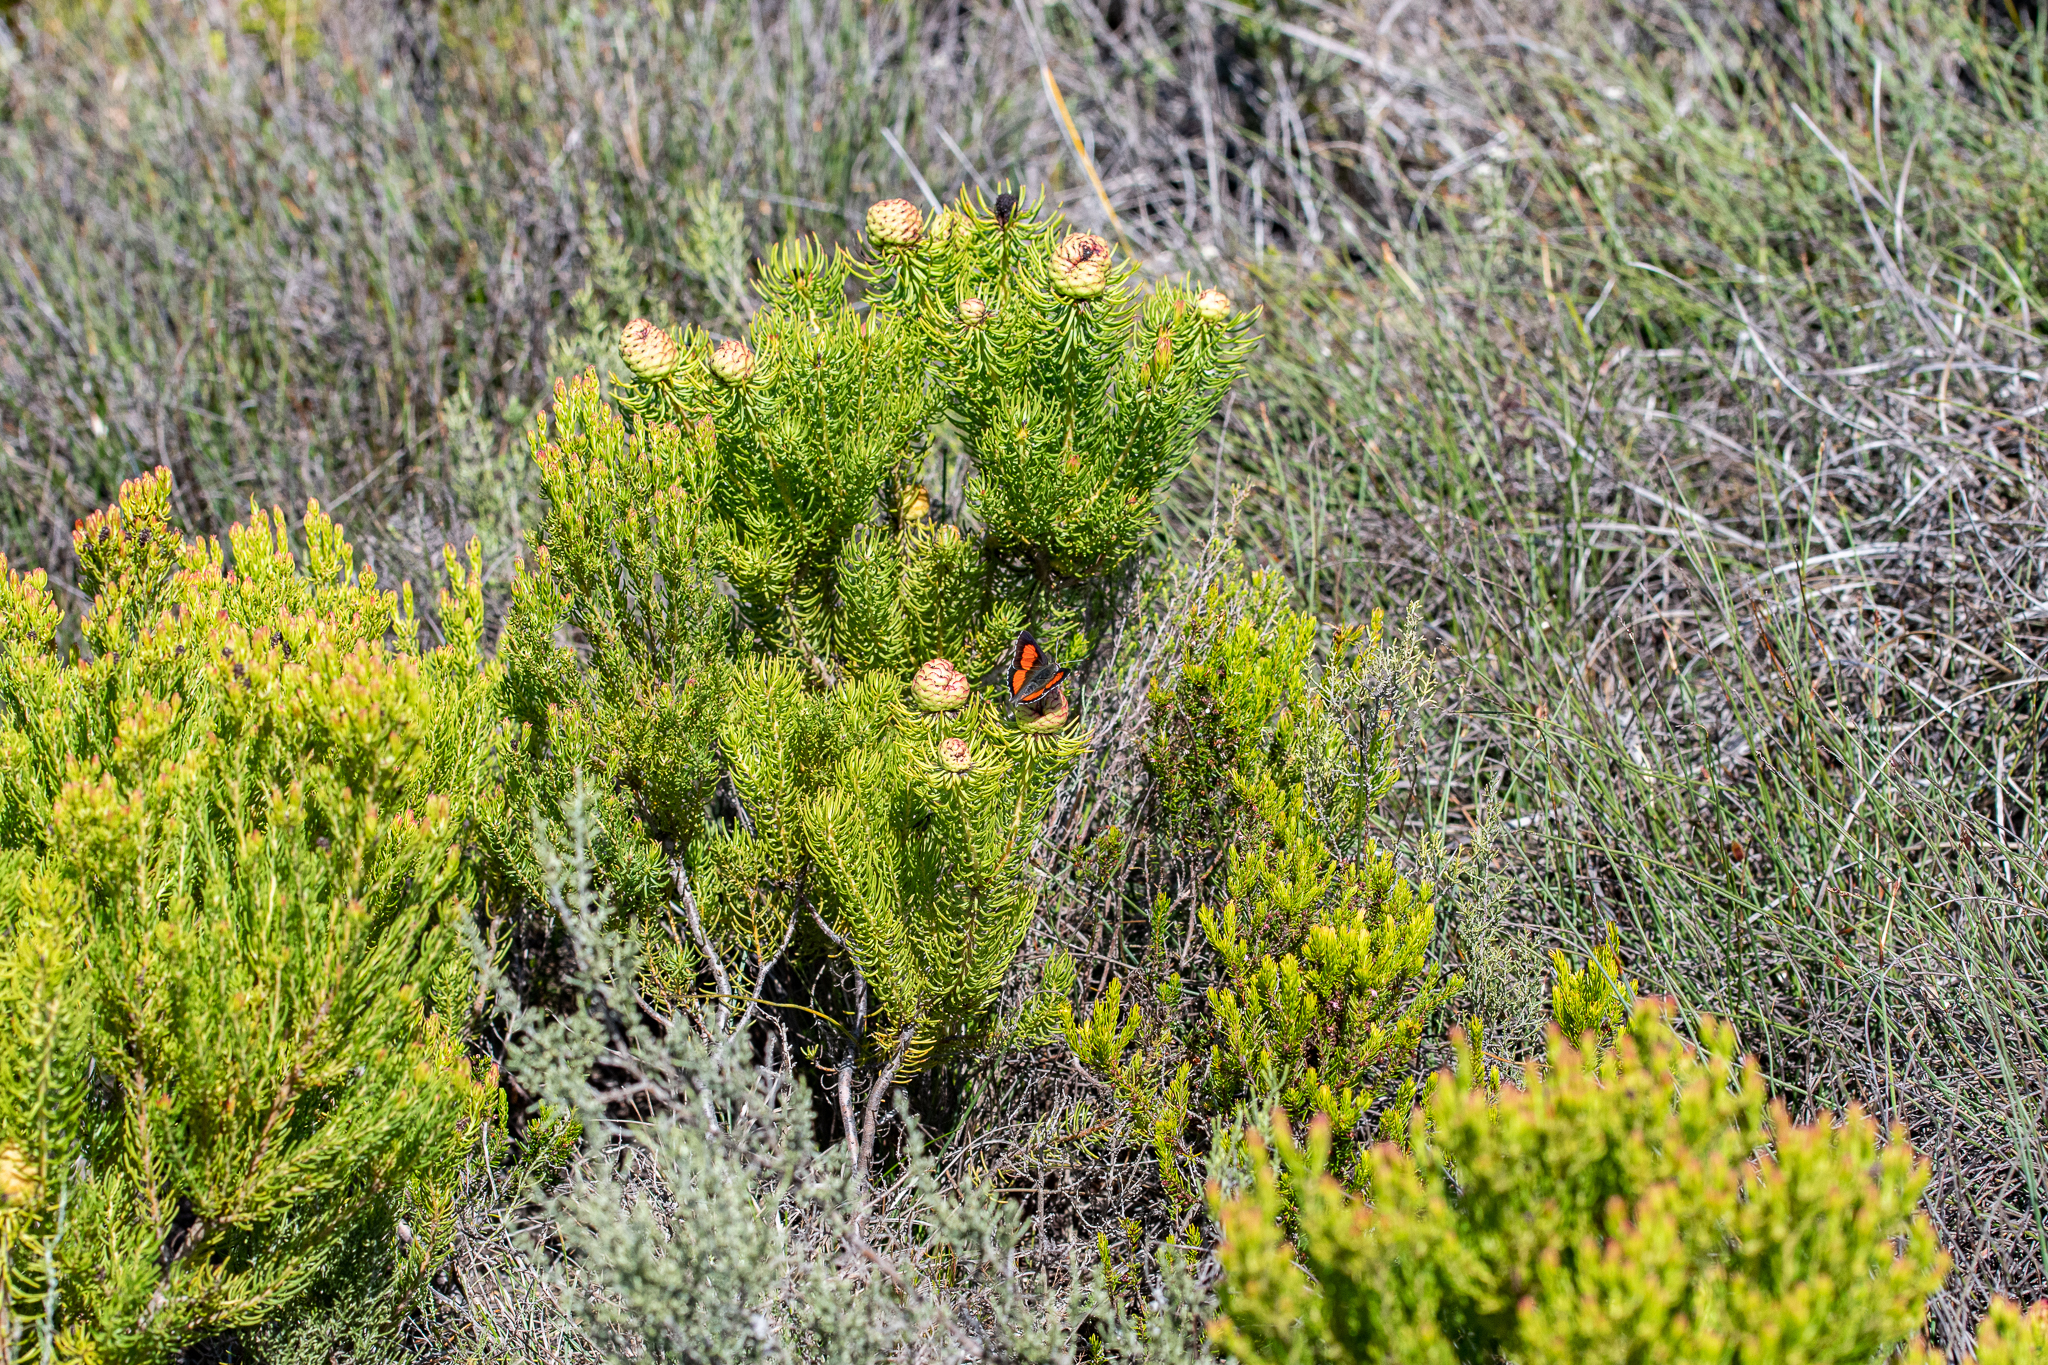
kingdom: Plantae
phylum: Tracheophyta
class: Magnoliopsida
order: Proteales
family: Proteaceae
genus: Leucadendron
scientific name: Leucadendron teretifolium
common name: Needle-leaf conebush
